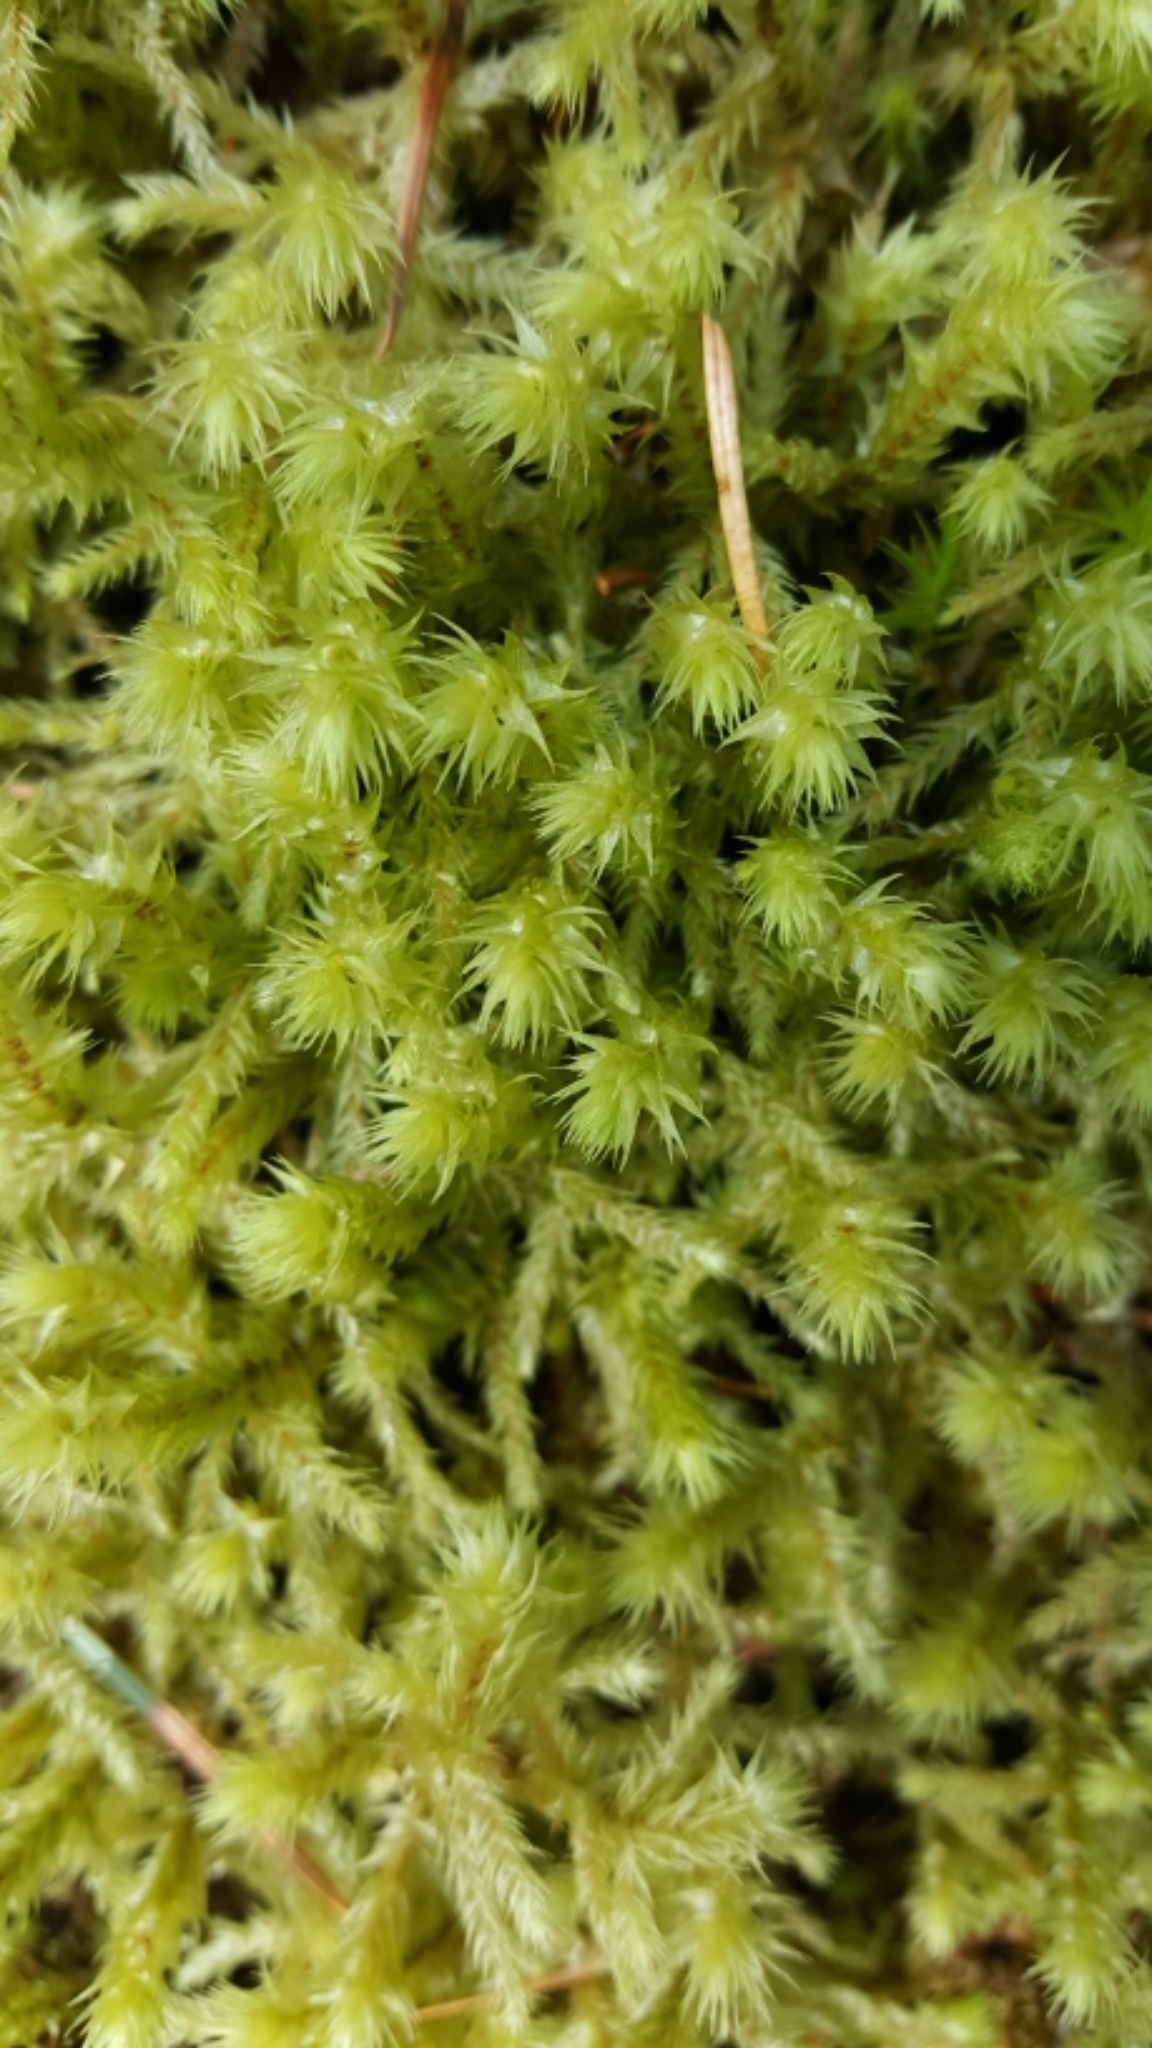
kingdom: Plantae
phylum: Bryophyta
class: Bryopsida
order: Hypnales
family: Hylocomiaceae
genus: Hylocomiadelphus
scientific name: Hylocomiadelphus triquetrus
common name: Rough goose neck moss
